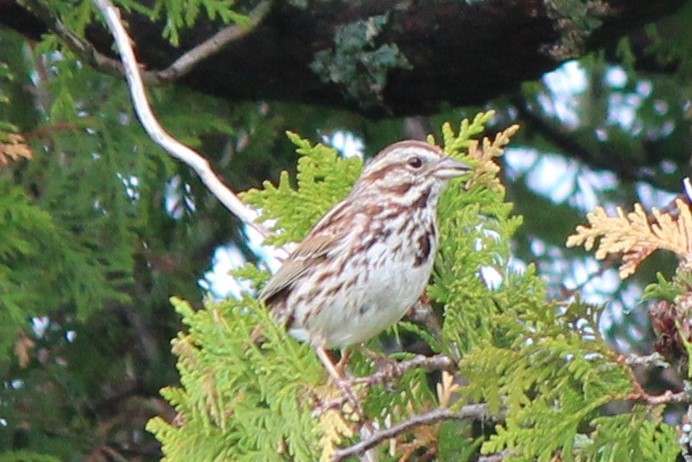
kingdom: Animalia
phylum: Chordata
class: Aves
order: Passeriformes
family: Passerellidae
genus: Melospiza
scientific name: Melospiza melodia
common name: Song sparrow
